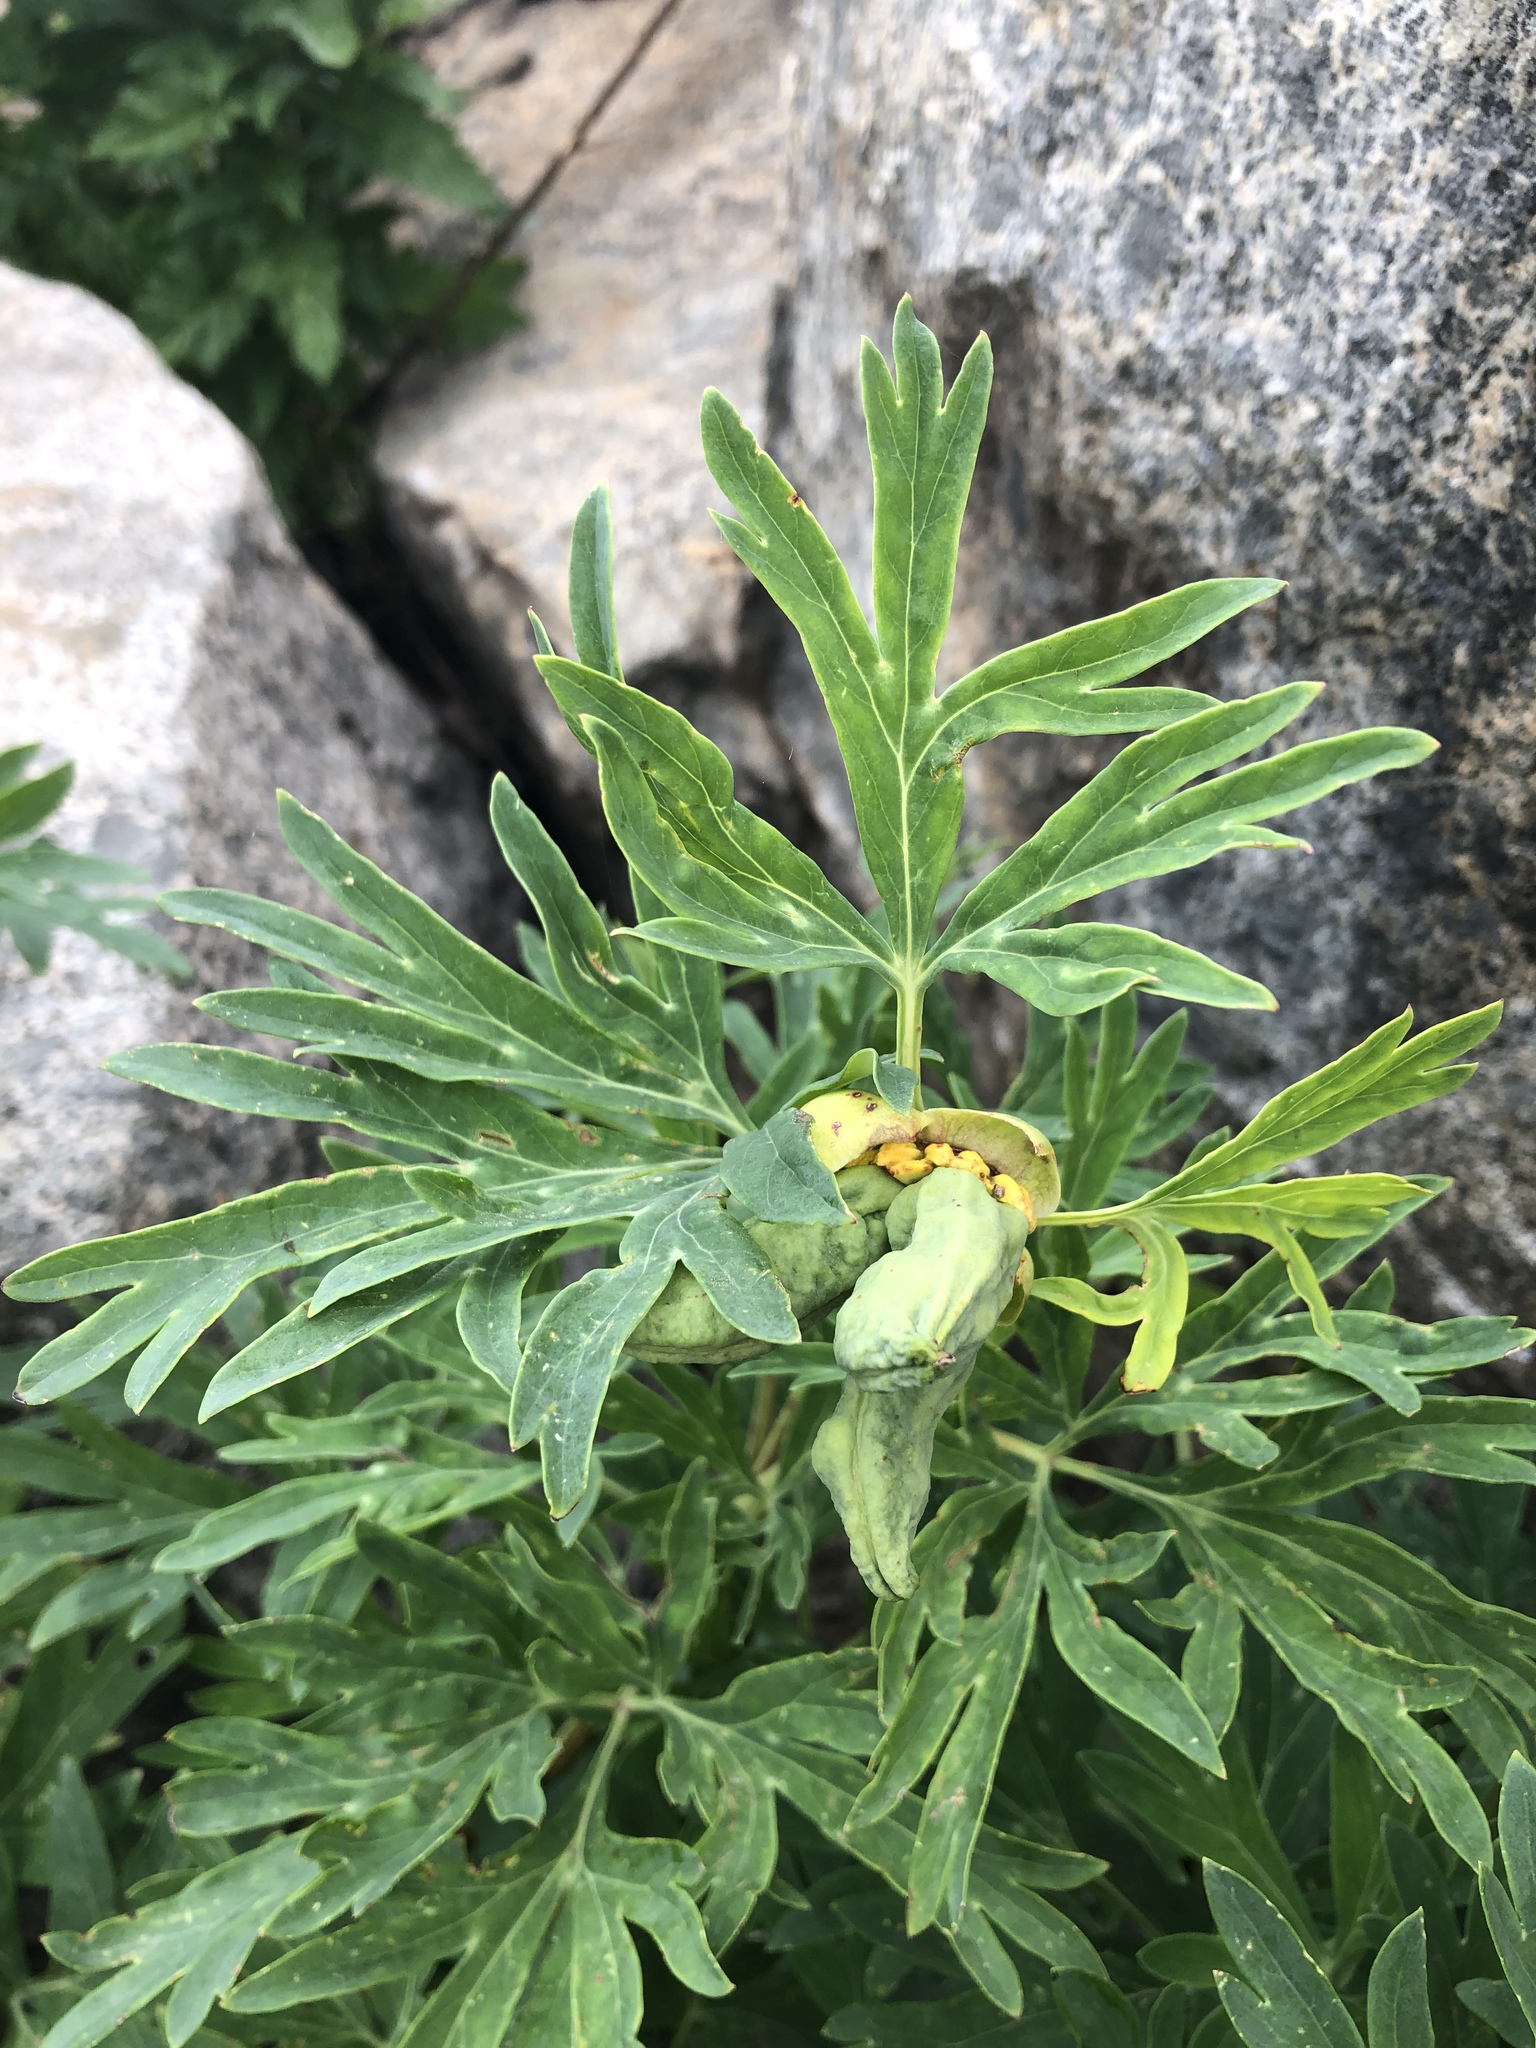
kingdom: Plantae
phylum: Tracheophyta
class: Magnoliopsida
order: Saxifragales
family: Paeoniaceae
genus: Paeonia
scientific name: Paeonia californica
